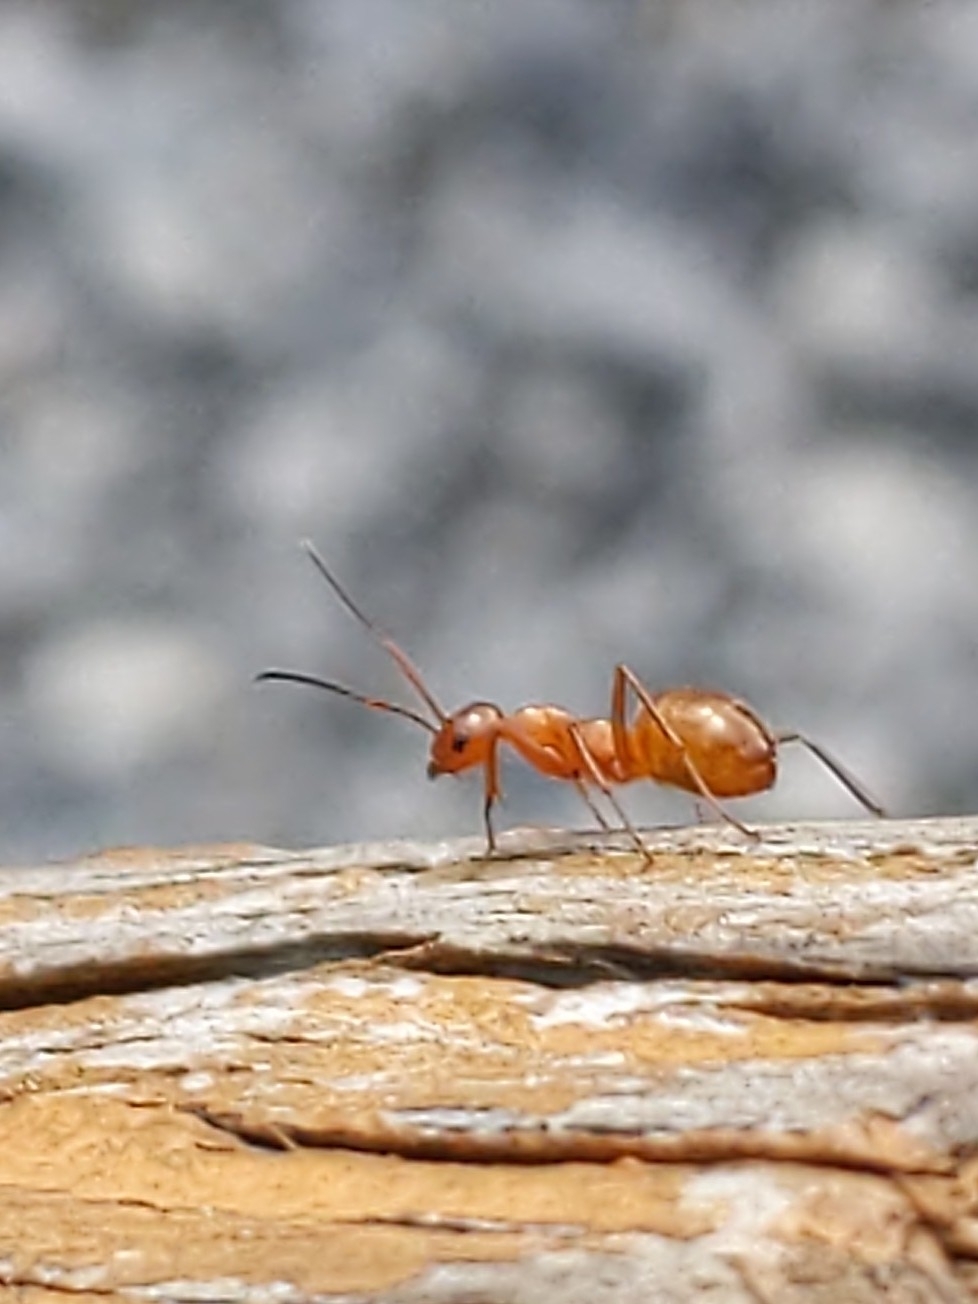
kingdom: Animalia
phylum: Arthropoda
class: Insecta
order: Hymenoptera
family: Formicidae
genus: Formica
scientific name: Formica
